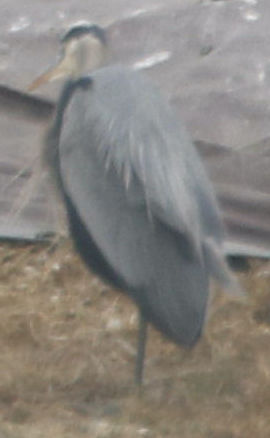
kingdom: Animalia
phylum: Chordata
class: Aves
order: Pelecaniformes
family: Ardeidae
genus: Ardea
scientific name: Ardea herodias
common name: Great blue heron
